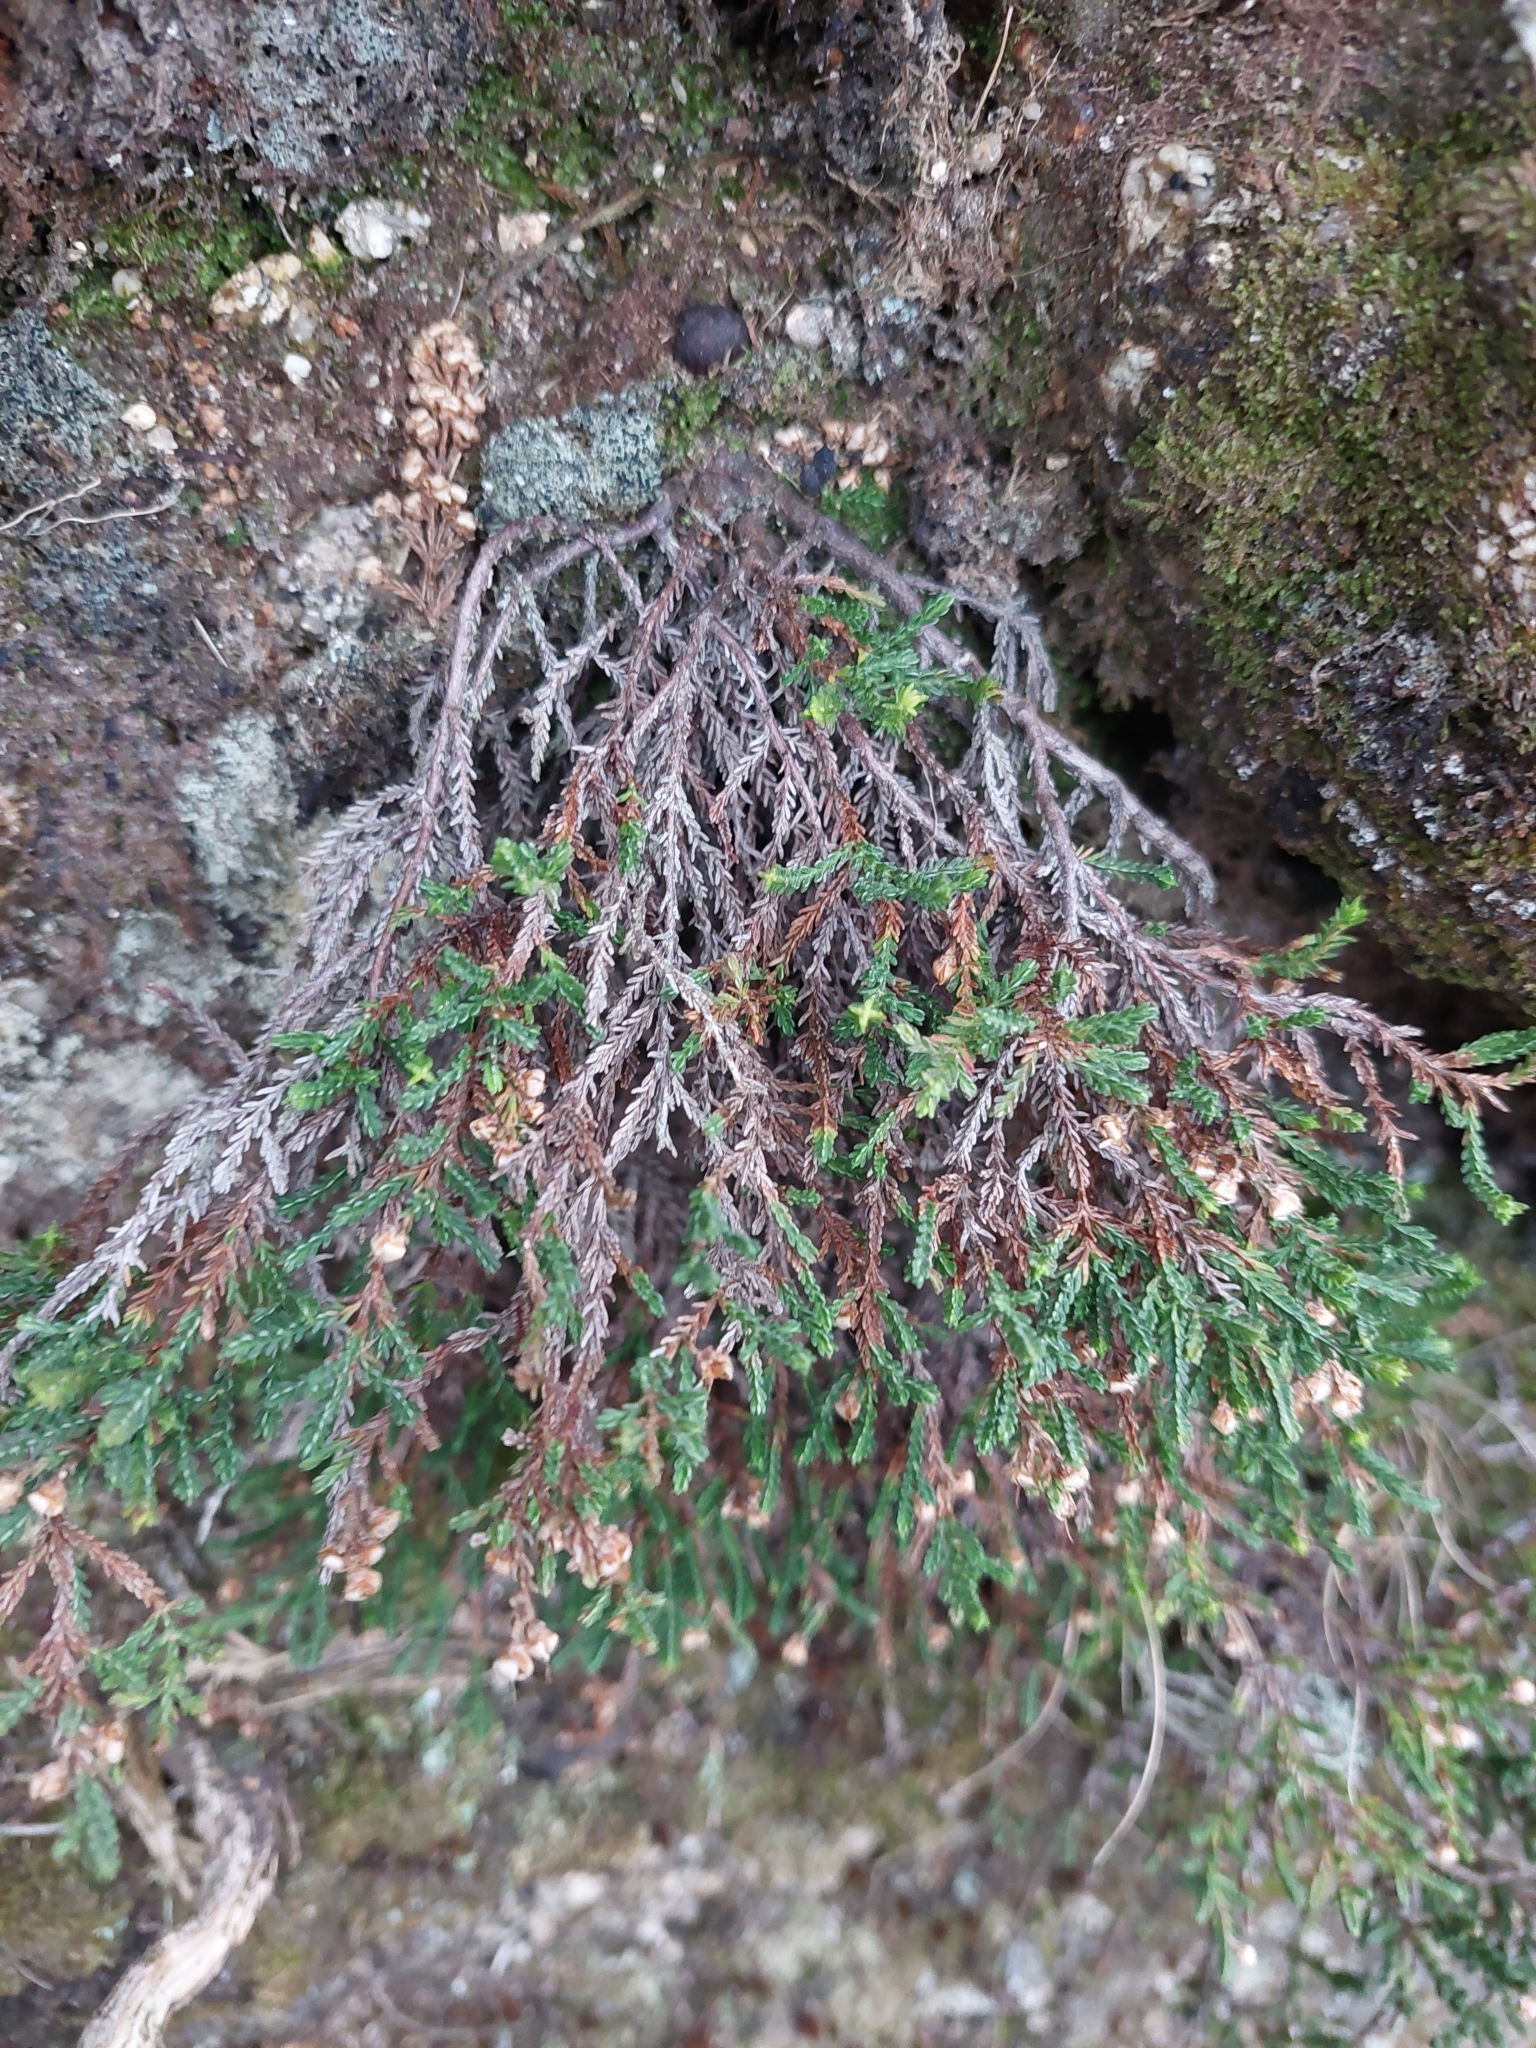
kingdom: Plantae
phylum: Tracheophyta
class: Magnoliopsida
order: Ericales
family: Ericaceae
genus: Calluna
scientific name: Calluna vulgaris
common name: Heather
